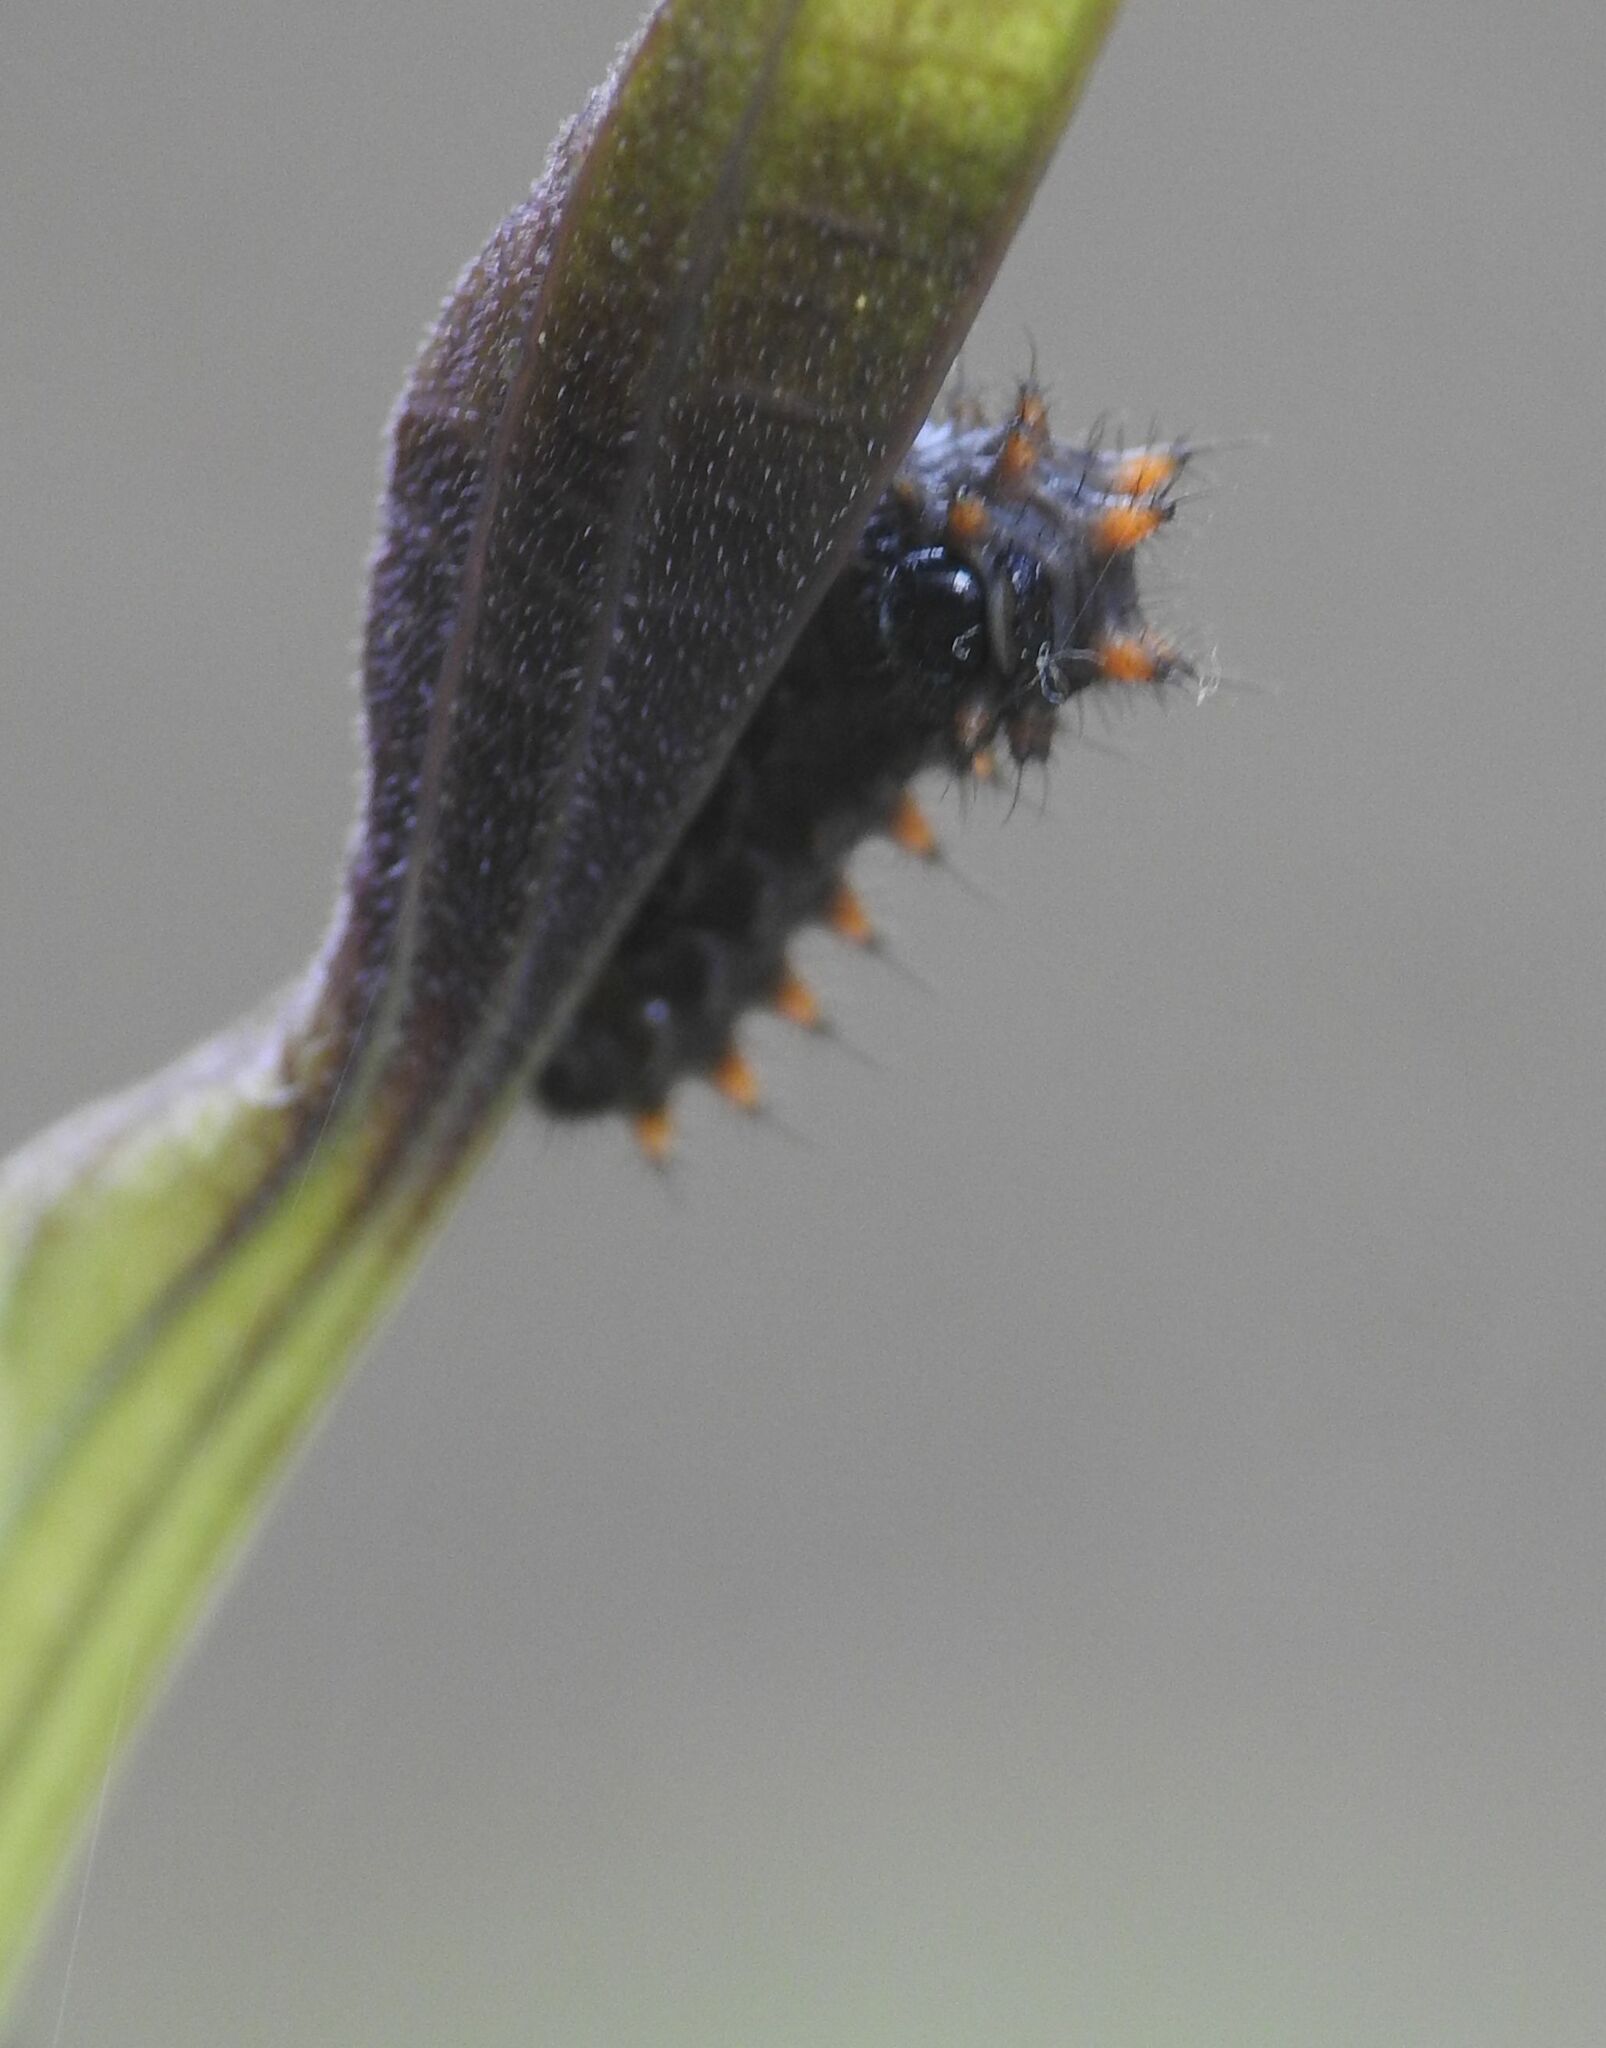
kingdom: Animalia
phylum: Arthropoda
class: Insecta
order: Lepidoptera
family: Papilionidae
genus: Zerynthia
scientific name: Zerynthia polyxena
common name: Southern festoon
